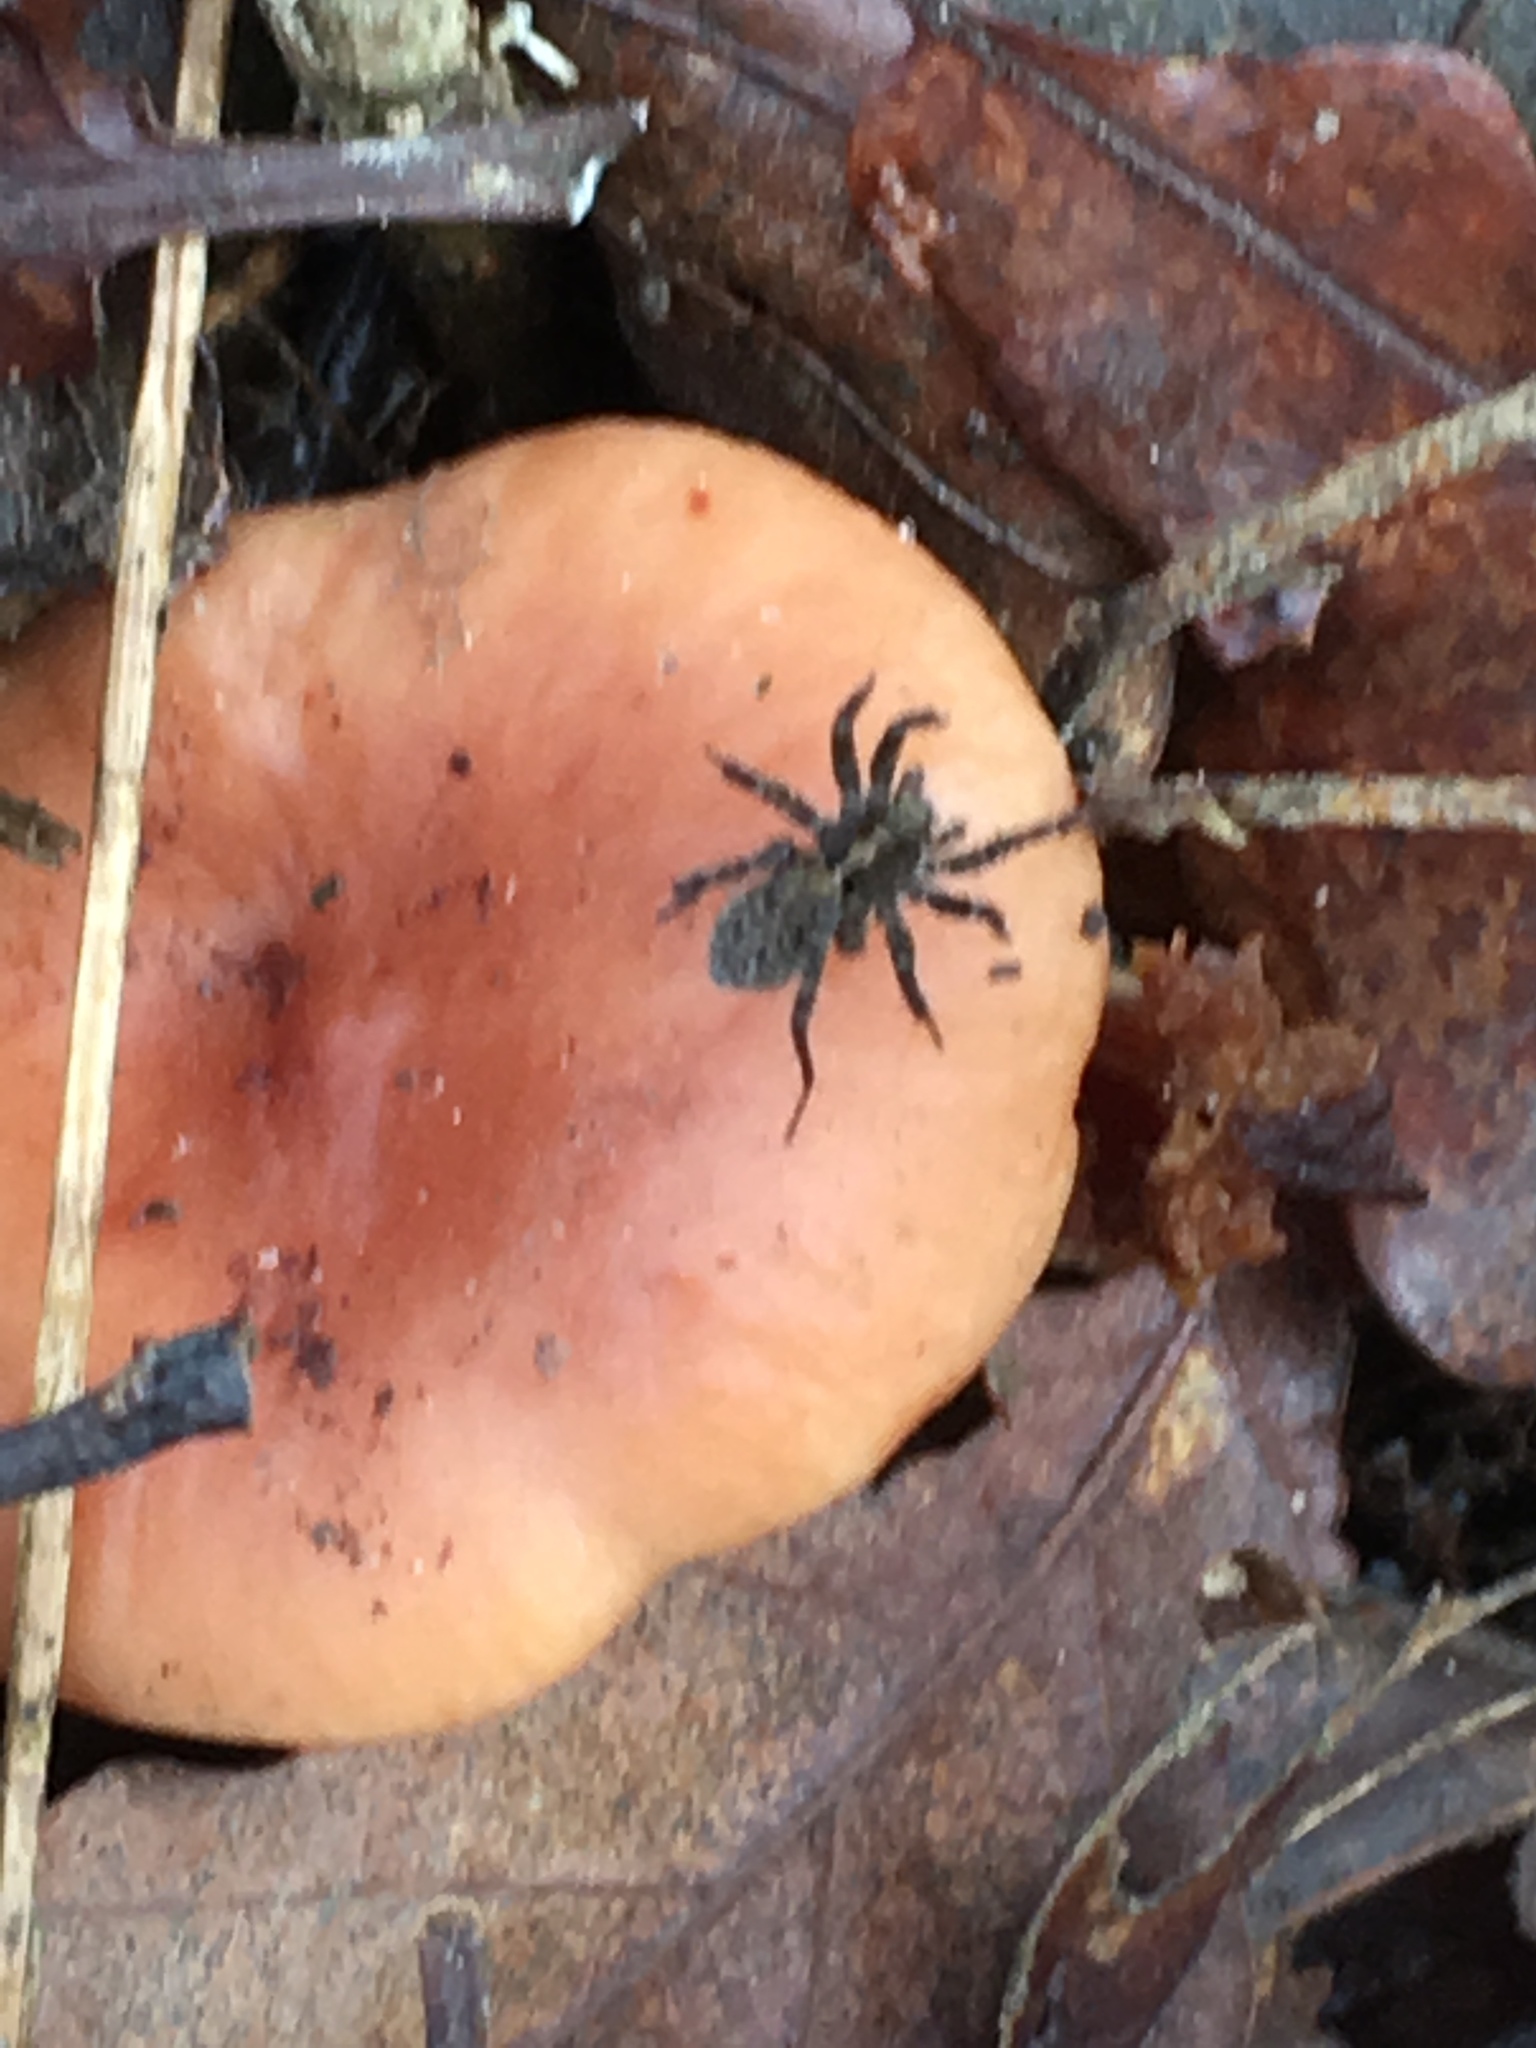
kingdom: Animalia
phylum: Arthropoda
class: Arachnida
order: Araneae
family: Lycosidae
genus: Pardosa
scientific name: Pardosa
